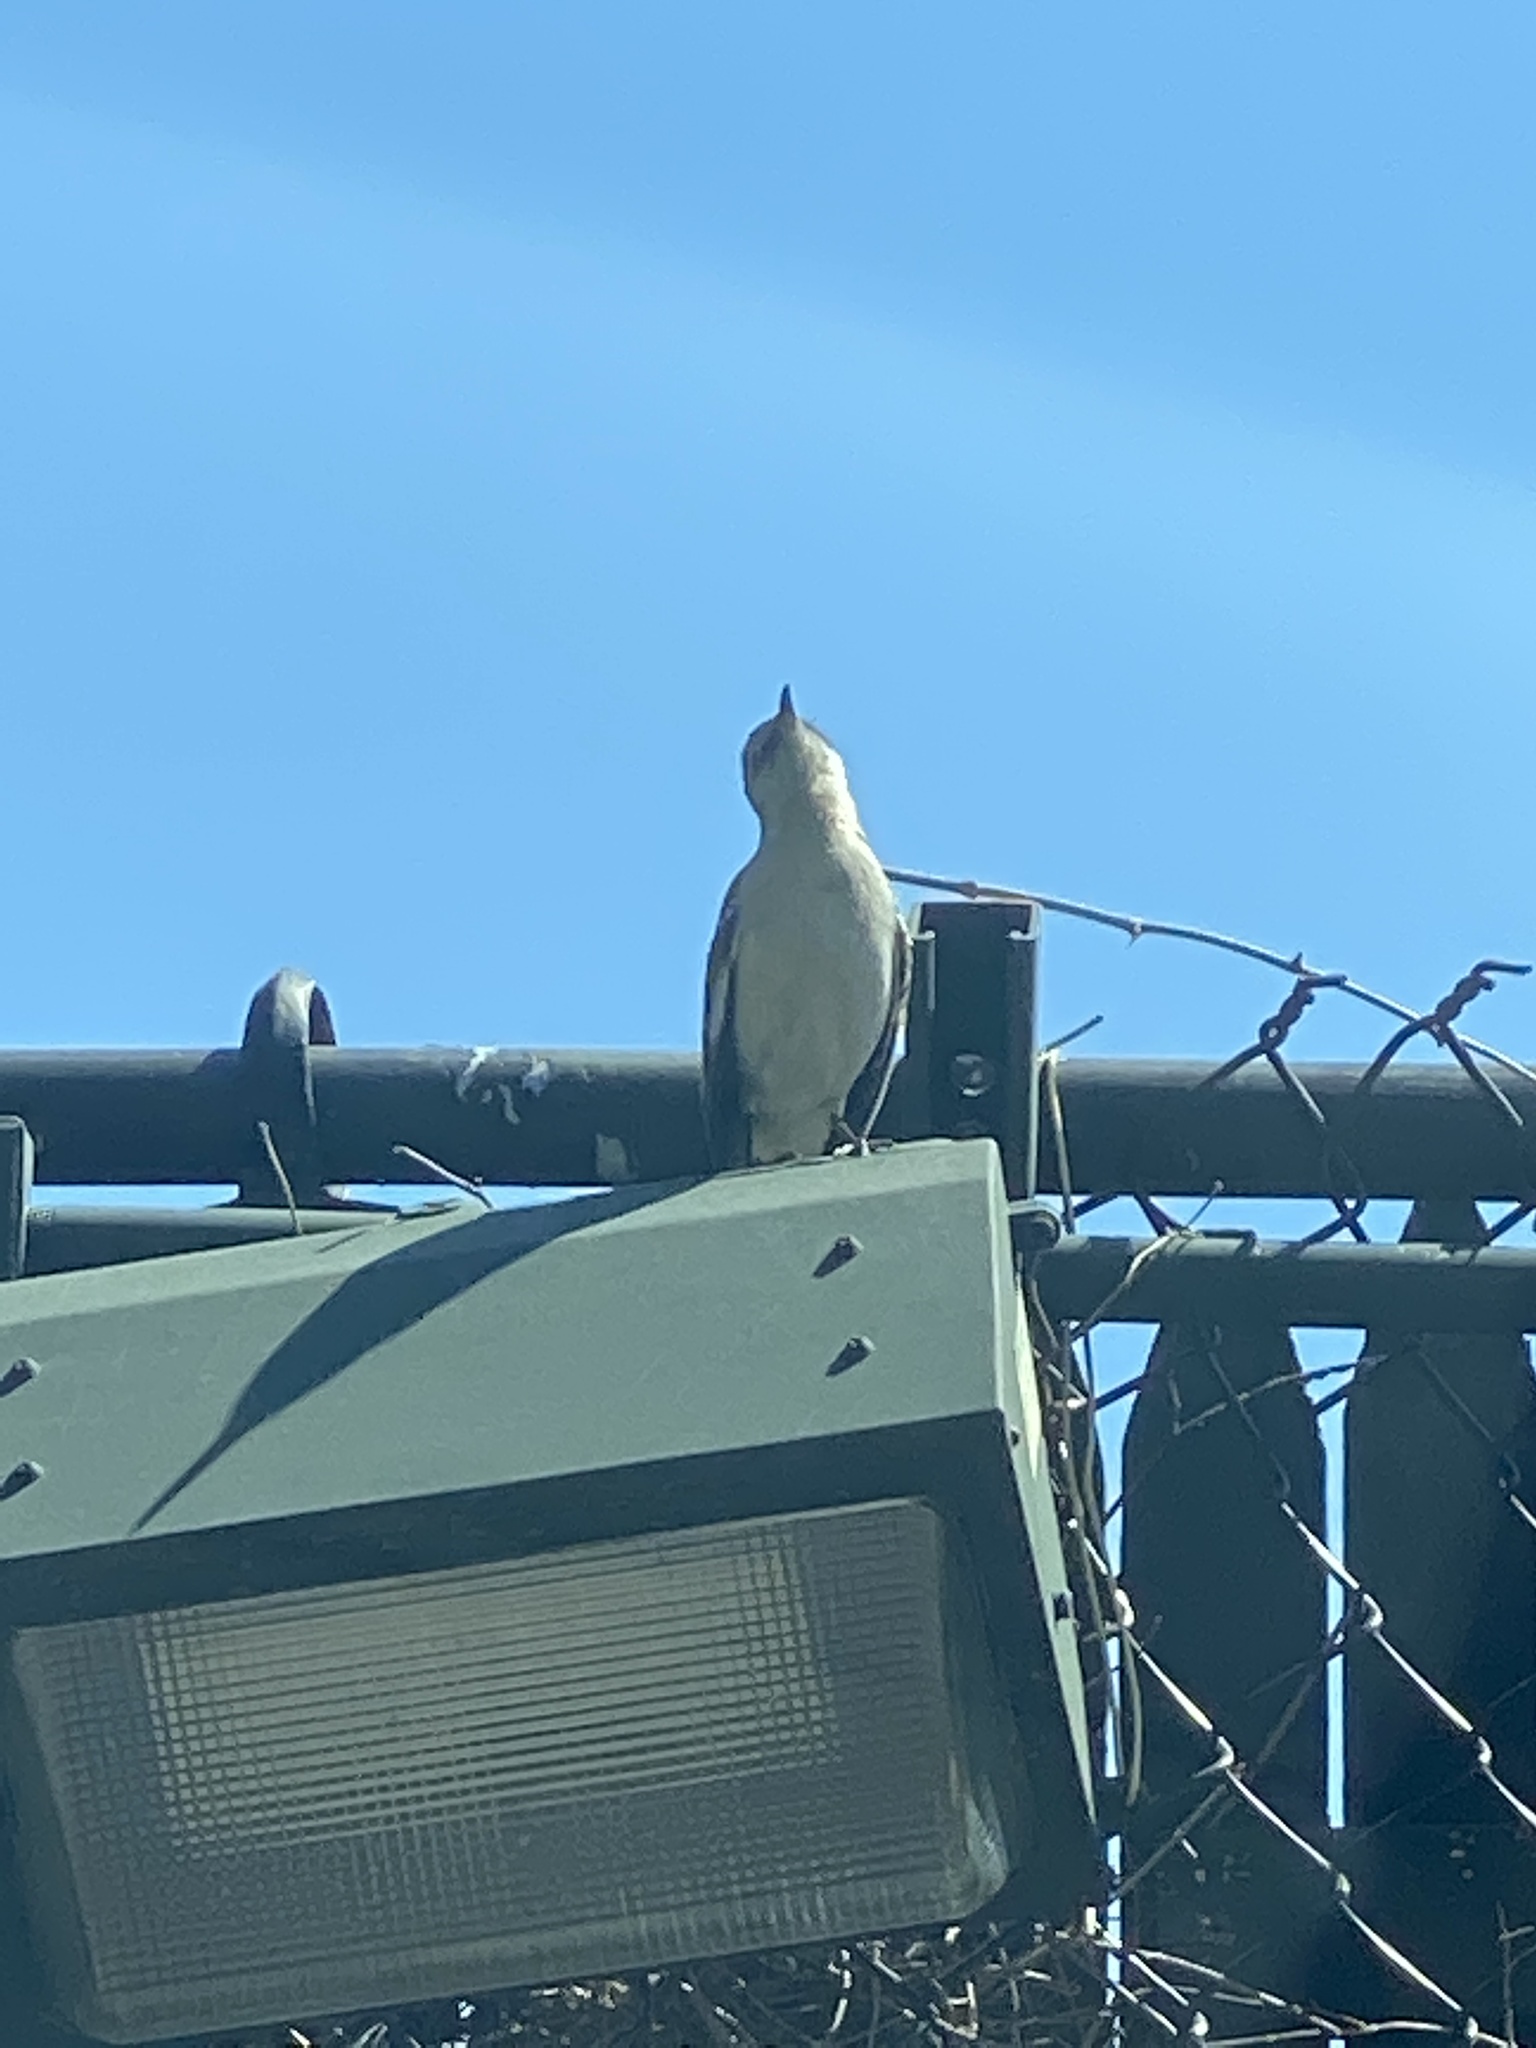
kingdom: Animalia
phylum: Chordata
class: Aves
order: Passeriformes
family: Mimidae
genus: Mimus
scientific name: Mimus polyglottos
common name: Northern mockingbird
